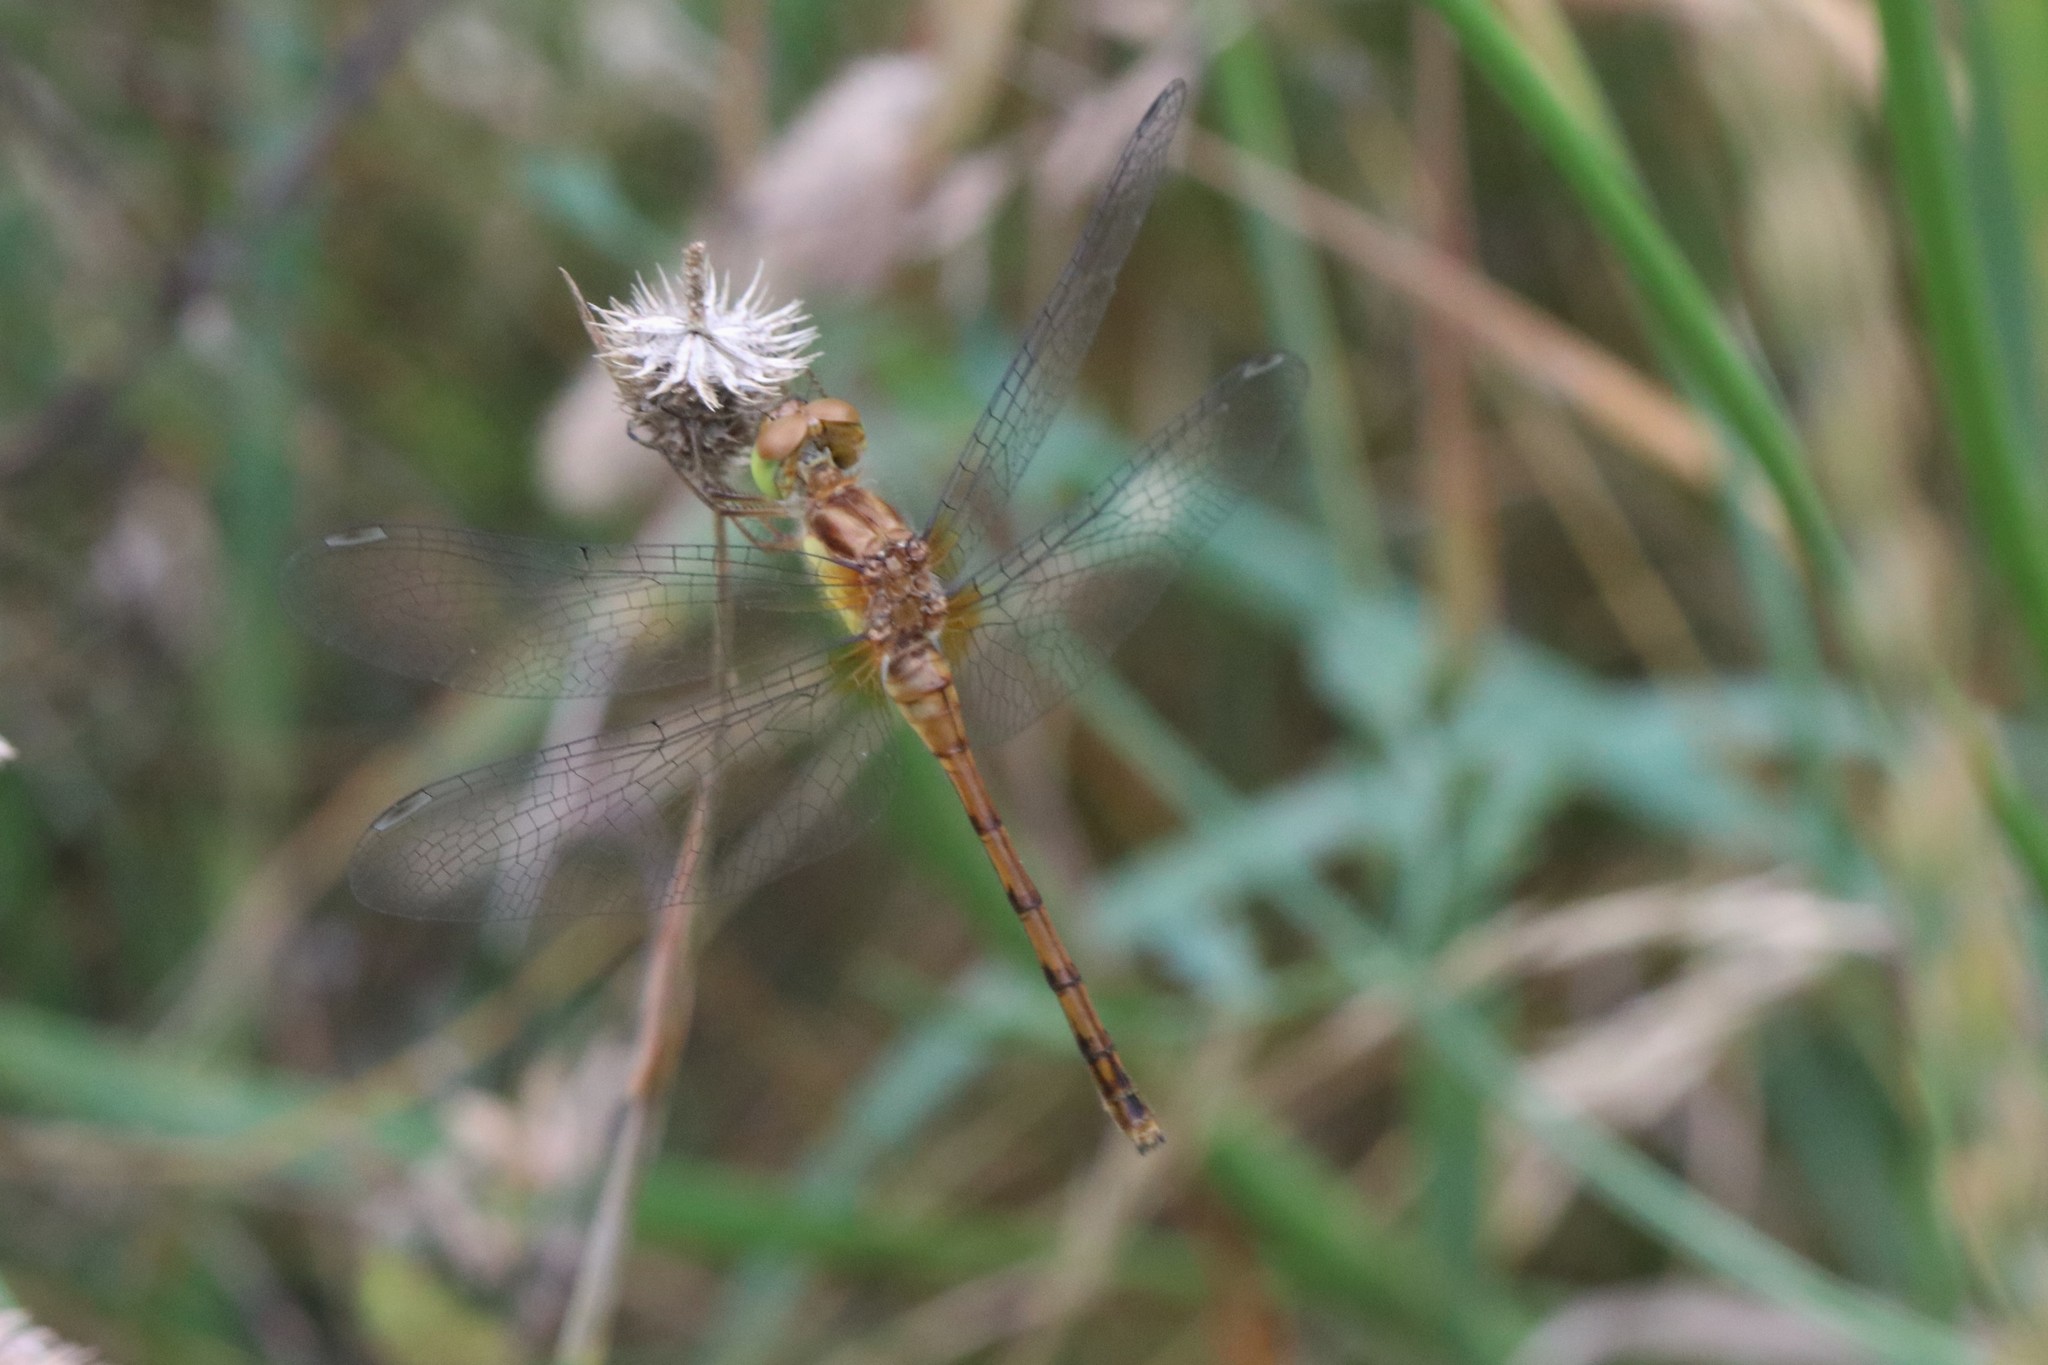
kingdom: Animalia
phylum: Arthropoda
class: Insecta
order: Odonata
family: Libellulidae
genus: Sympetrum
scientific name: Sympetrum vicinum
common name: Autumn meadowhawk
